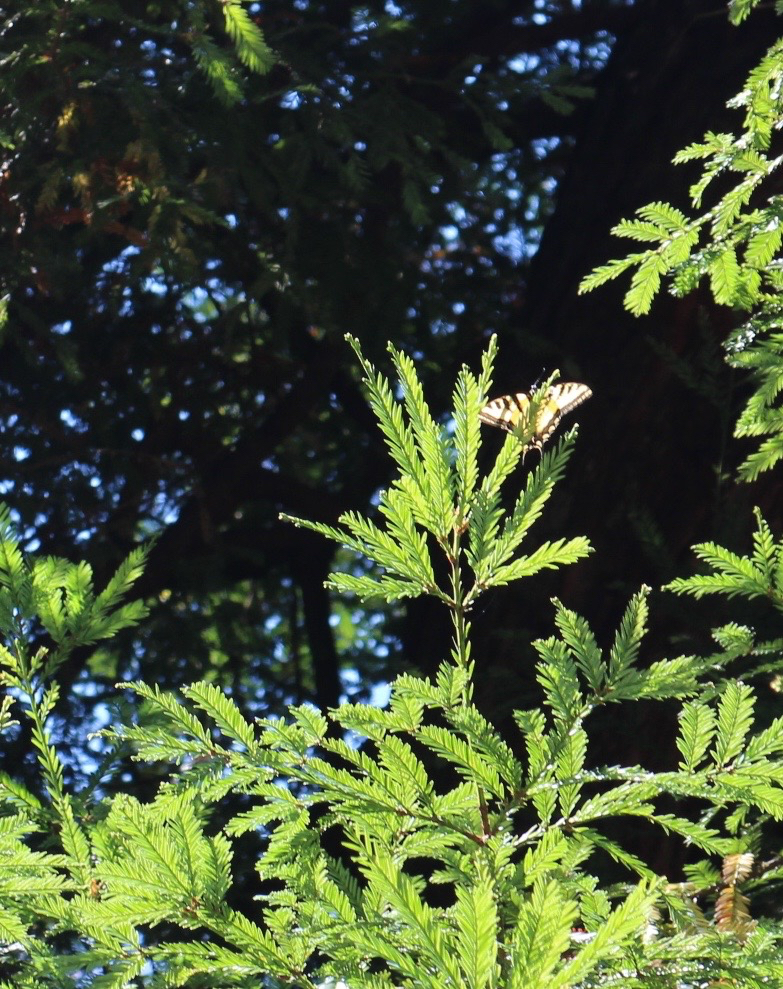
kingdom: Animalia
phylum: Arthropoda
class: Insecta
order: Lepidoptera
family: Papilionidae
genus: Papilio
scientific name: Papilio rutulus
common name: Western tiger swallowtail
